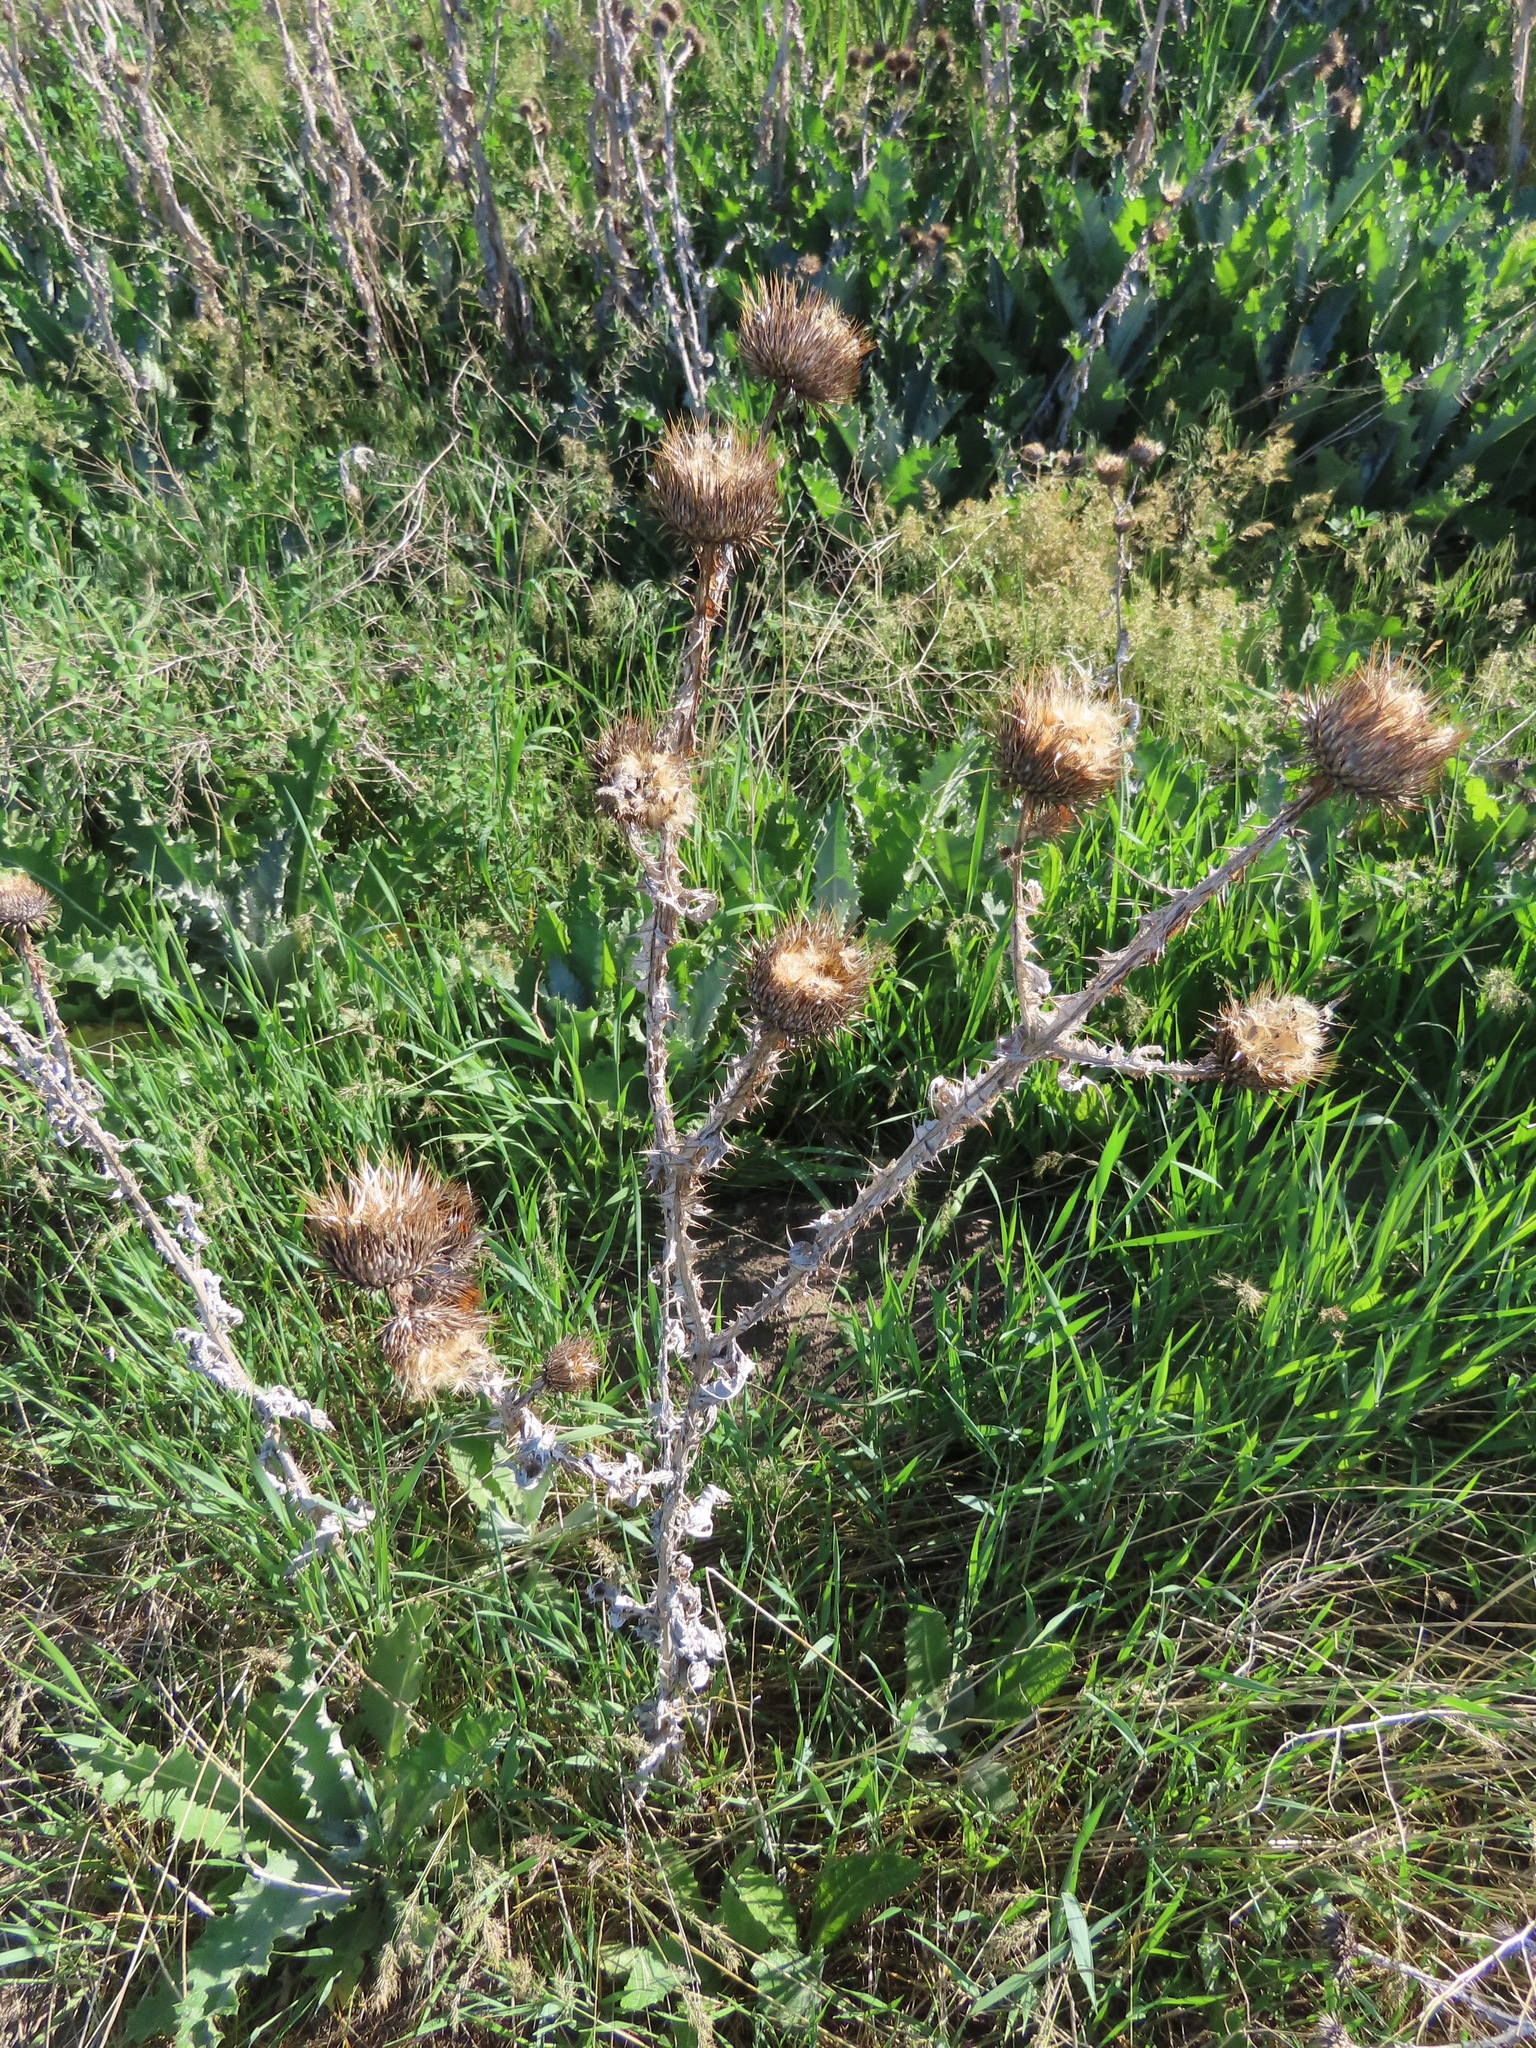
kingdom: Plantae
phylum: Tracheophyta
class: Magnoliopsida
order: Asterales
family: Asteraceae
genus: Onopordum
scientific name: Onopordum acanthium
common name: Scotch thistle
